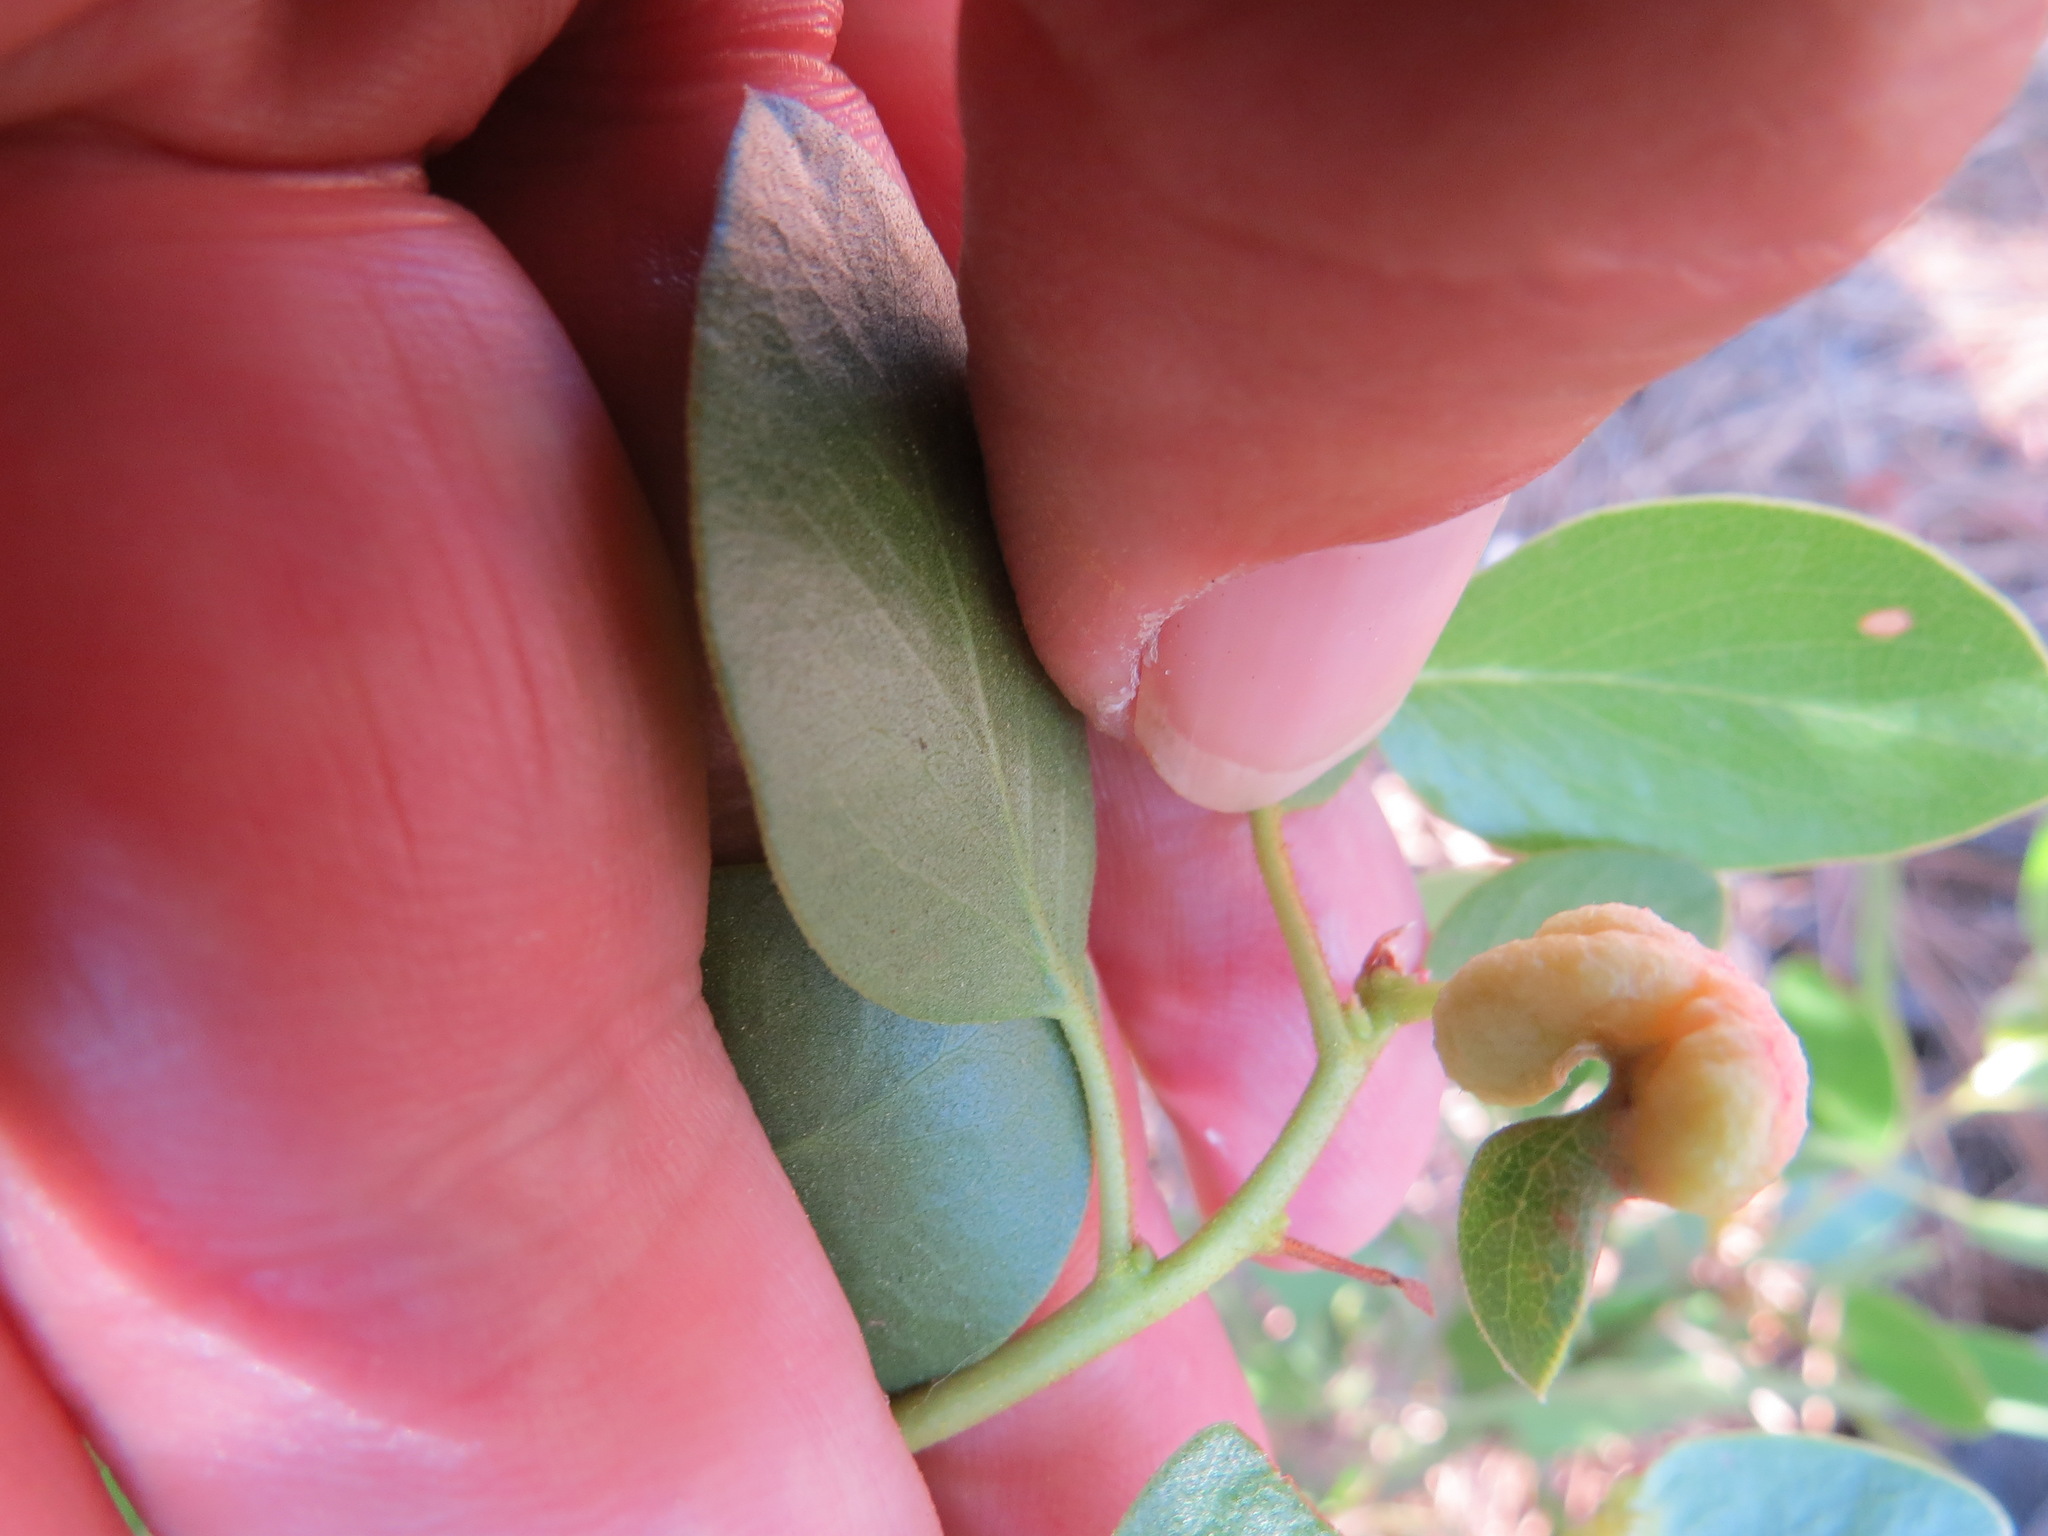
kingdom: Animalia
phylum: Arthropoda
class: Insecta
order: Hemiptera
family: Aphididae
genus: Tamalia
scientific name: Tamalia coweni
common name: Manzanita leafgall aphid
